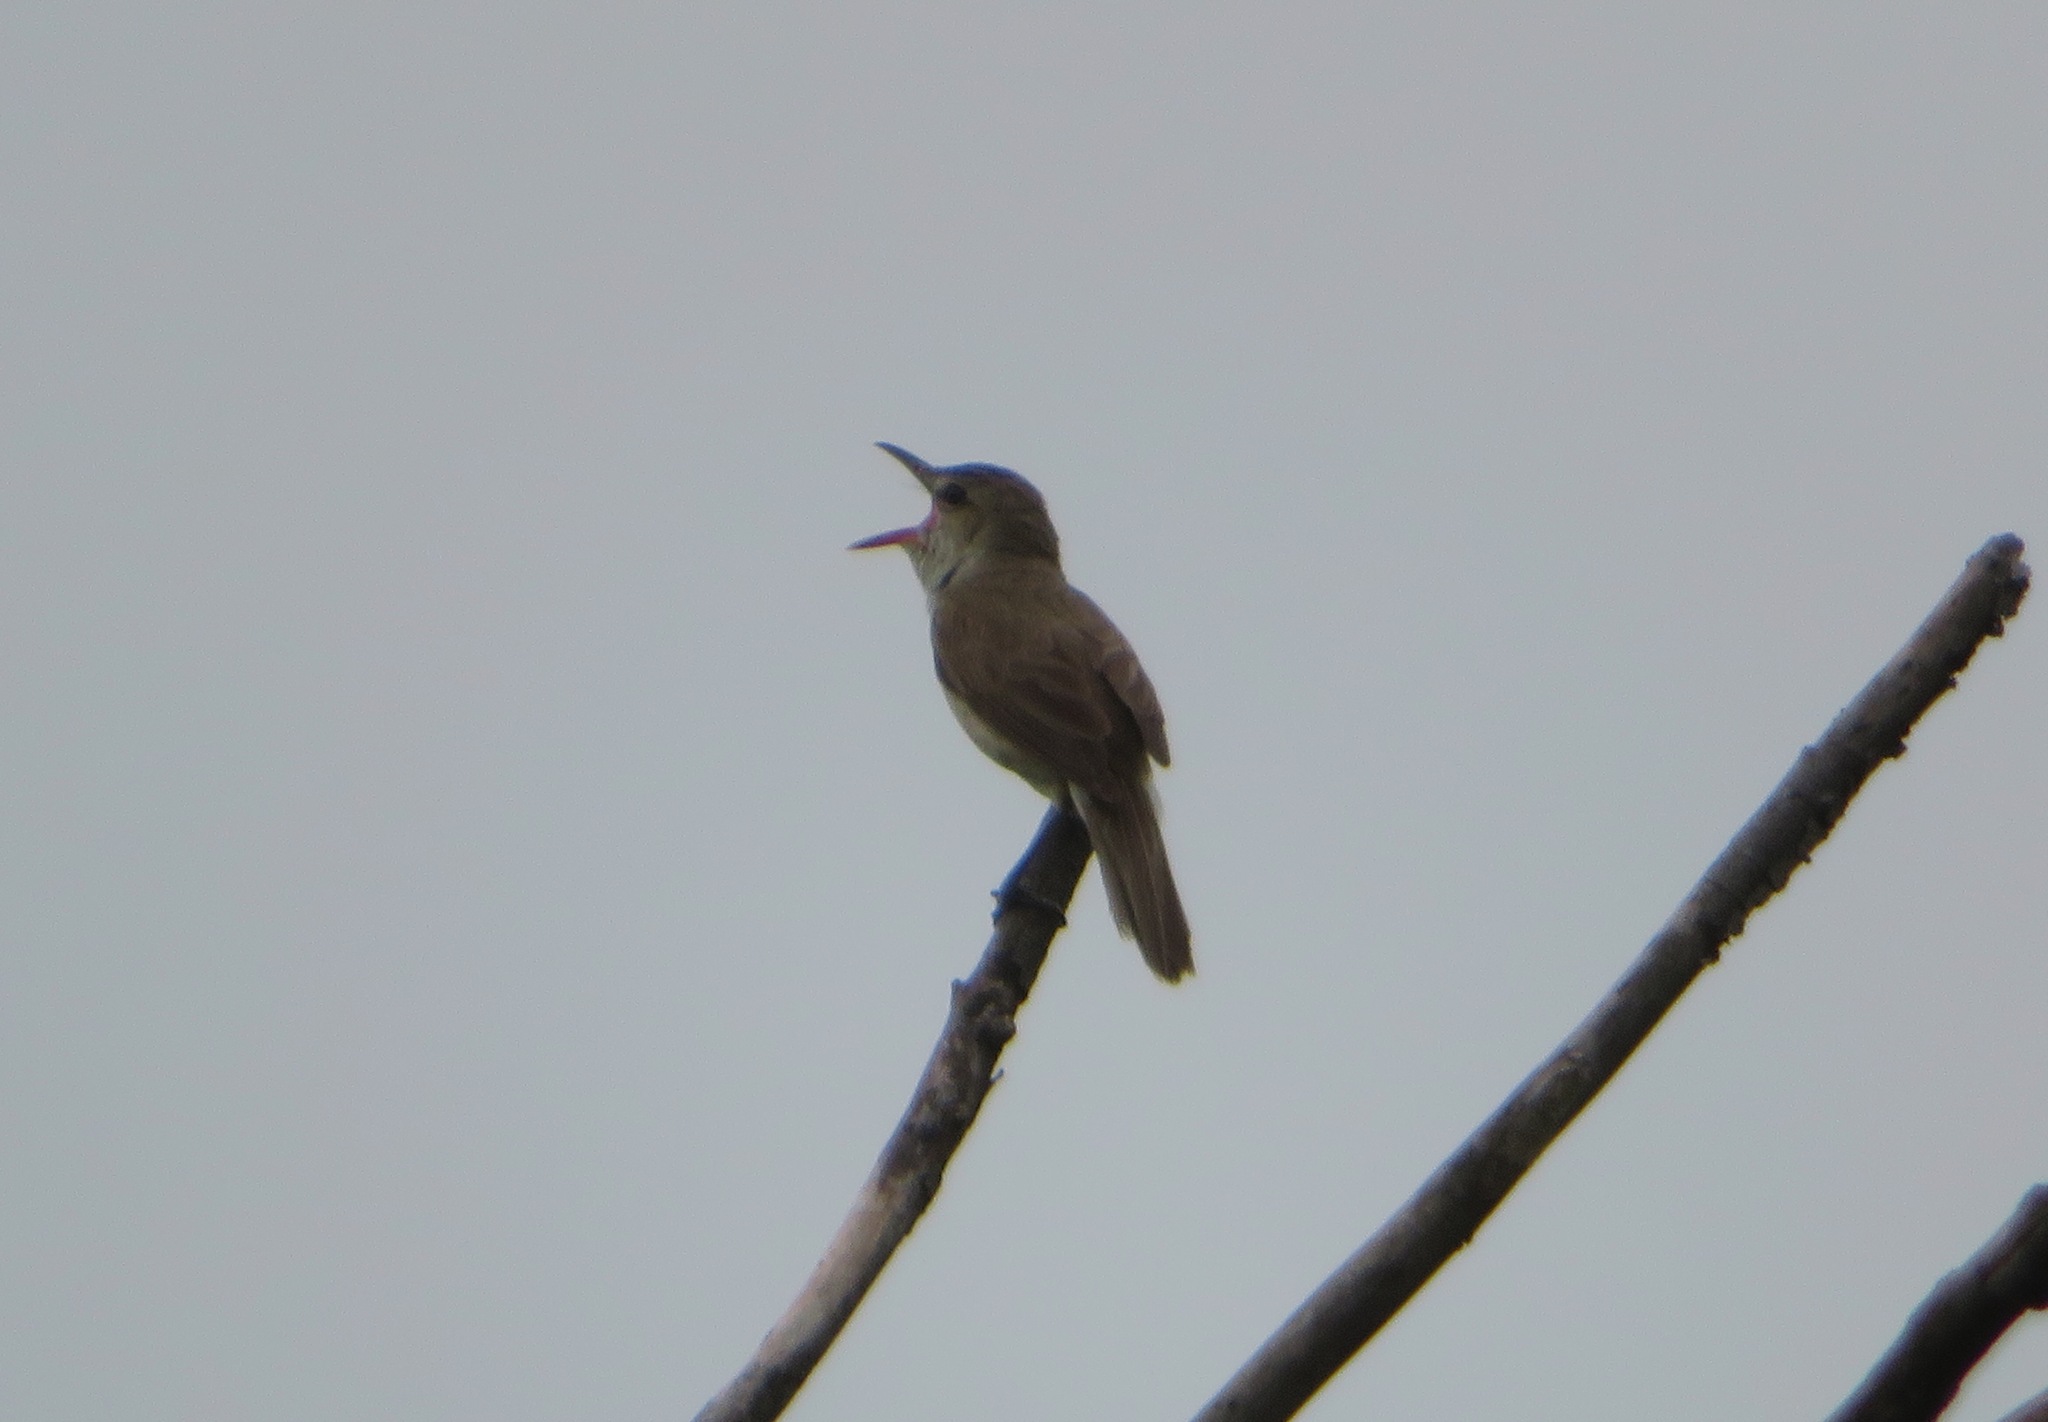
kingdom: Animalia
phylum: Chordata
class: Aves
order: Passeriformes
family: Acrocephalidae
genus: Acrocephalus
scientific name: Acrocephalus orientalis
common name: Oriental reed warbler
